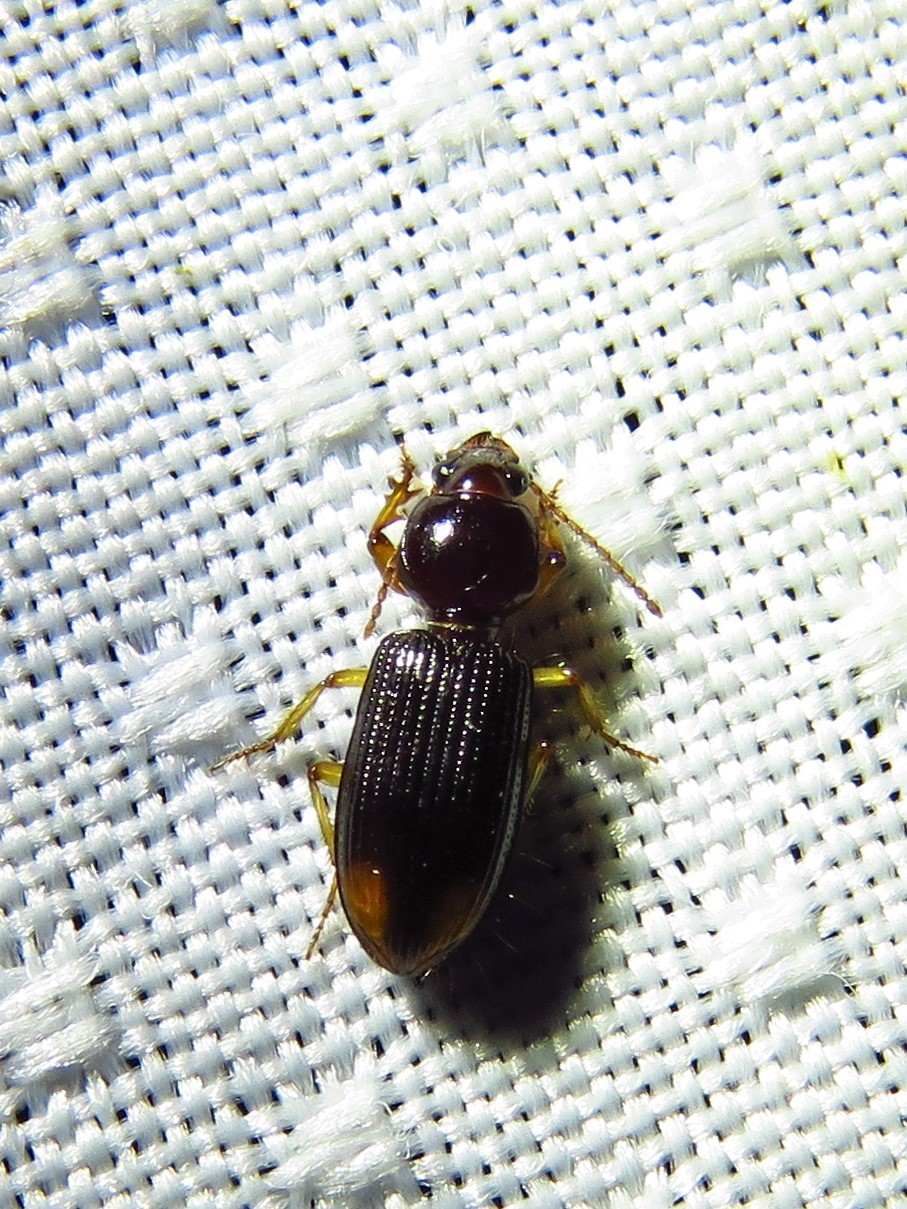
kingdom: Animalia
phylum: Arthropoda
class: Insecta
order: Coleoptera
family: Carabidae
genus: Aspidoglossa
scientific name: Aspidoglossa subangulata
